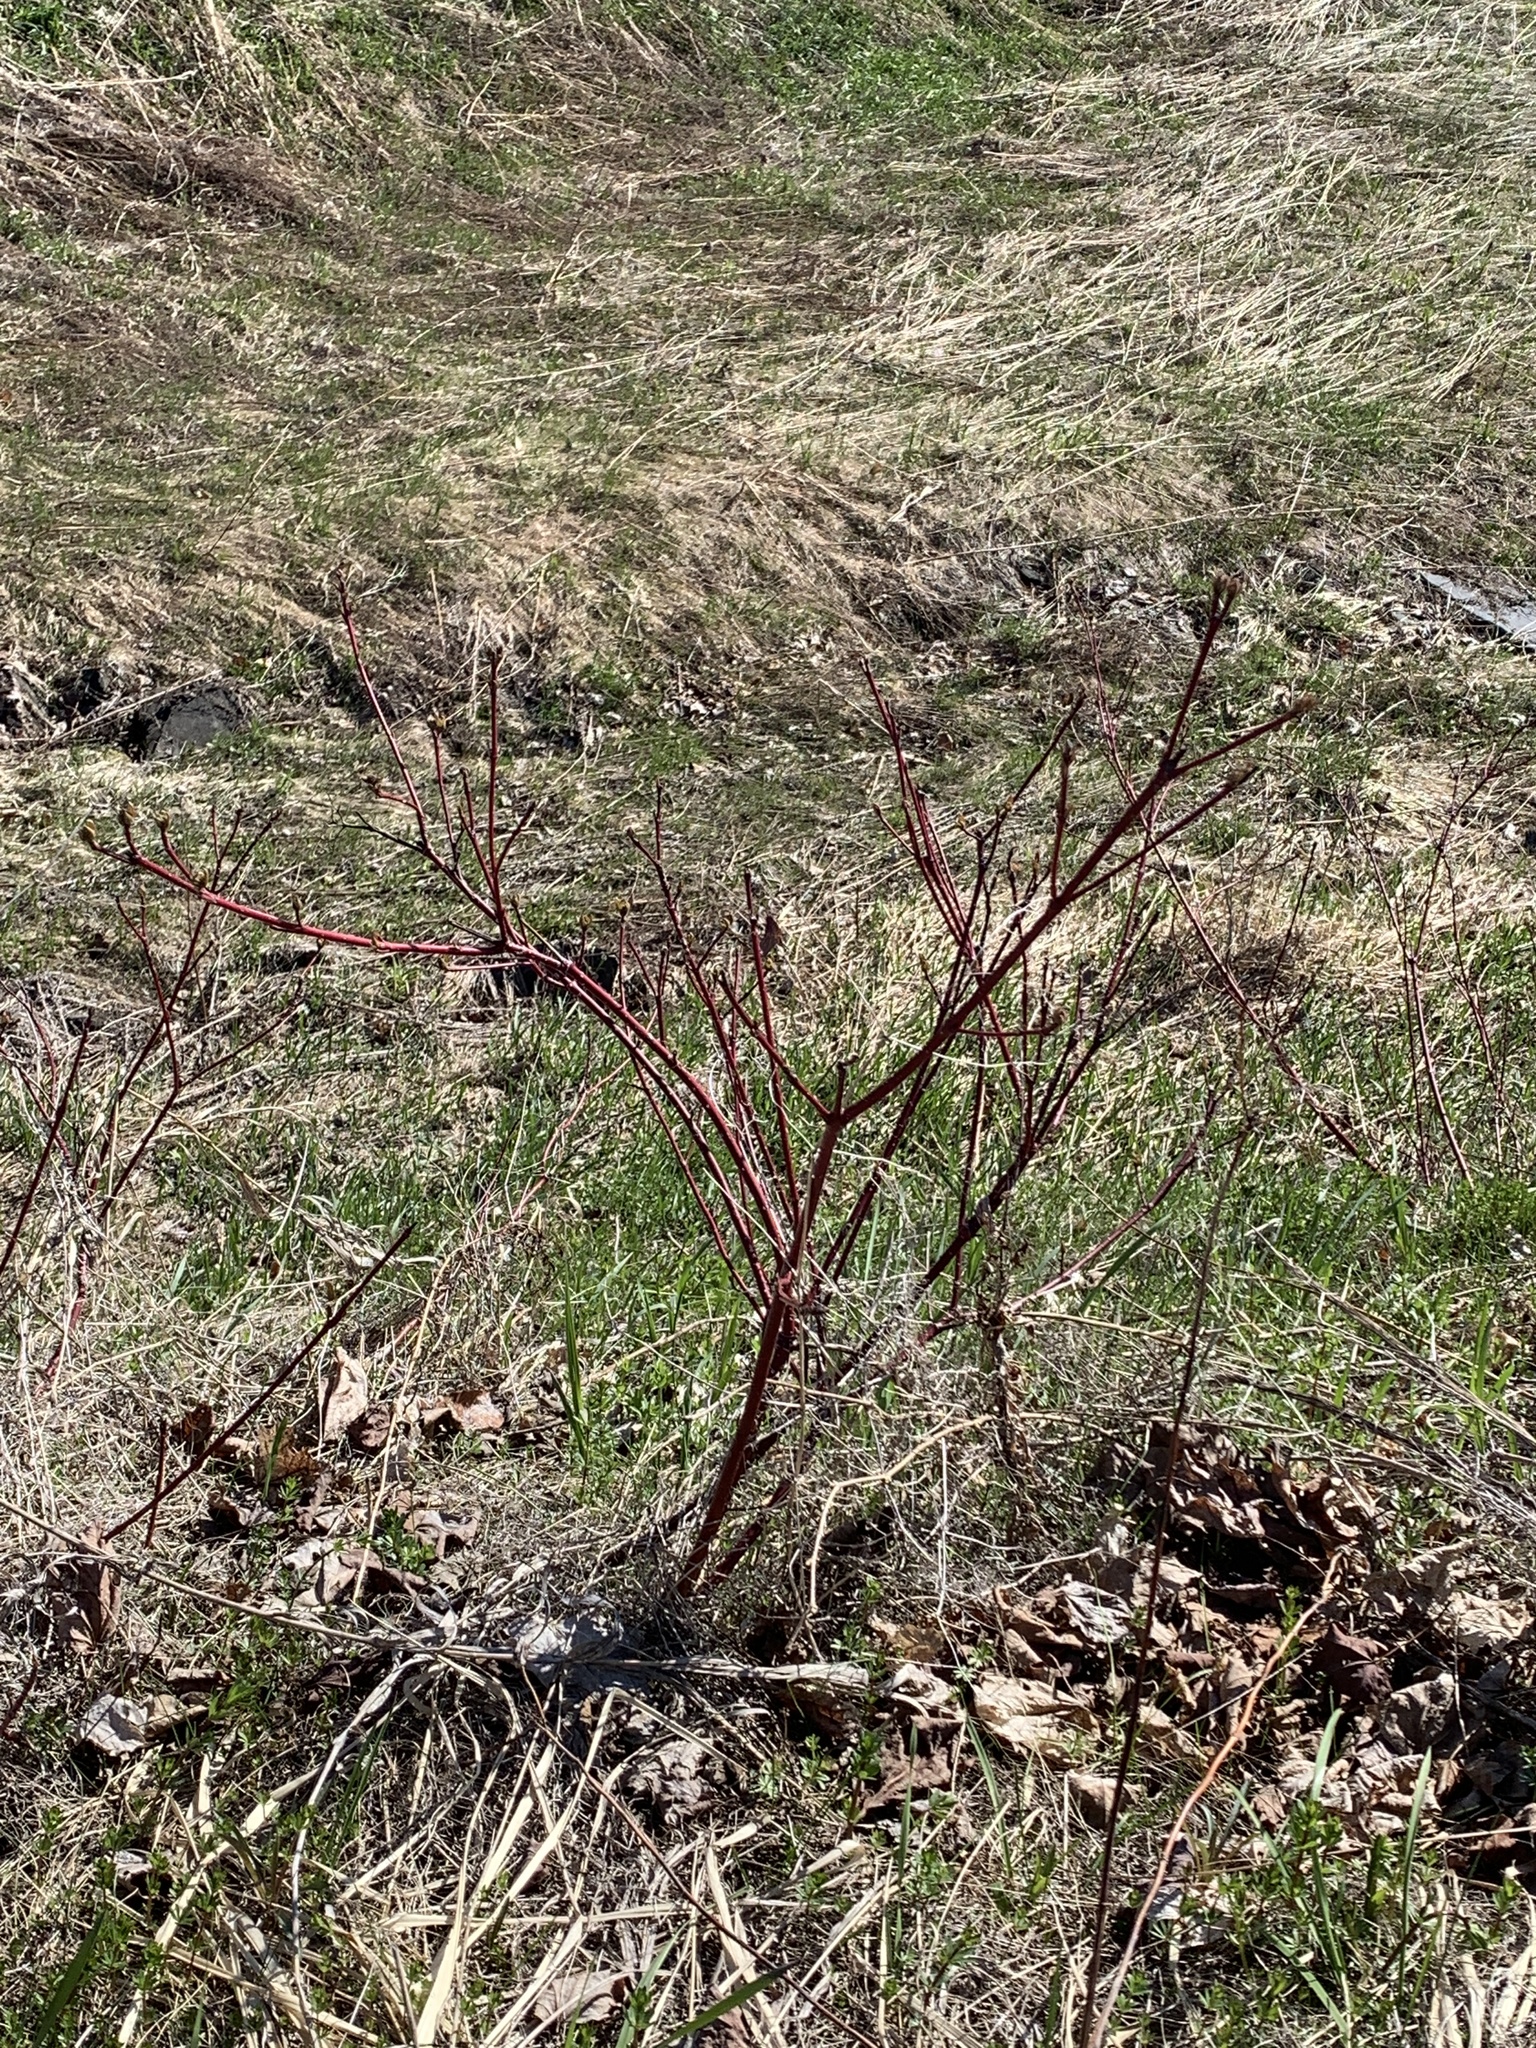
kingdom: Plantae
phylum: Tracheophyta
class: Magnoliopsida
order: Cornales
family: Cornaceae
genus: Cornus
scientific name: Cornus sericea
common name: Red-osier dogwood
